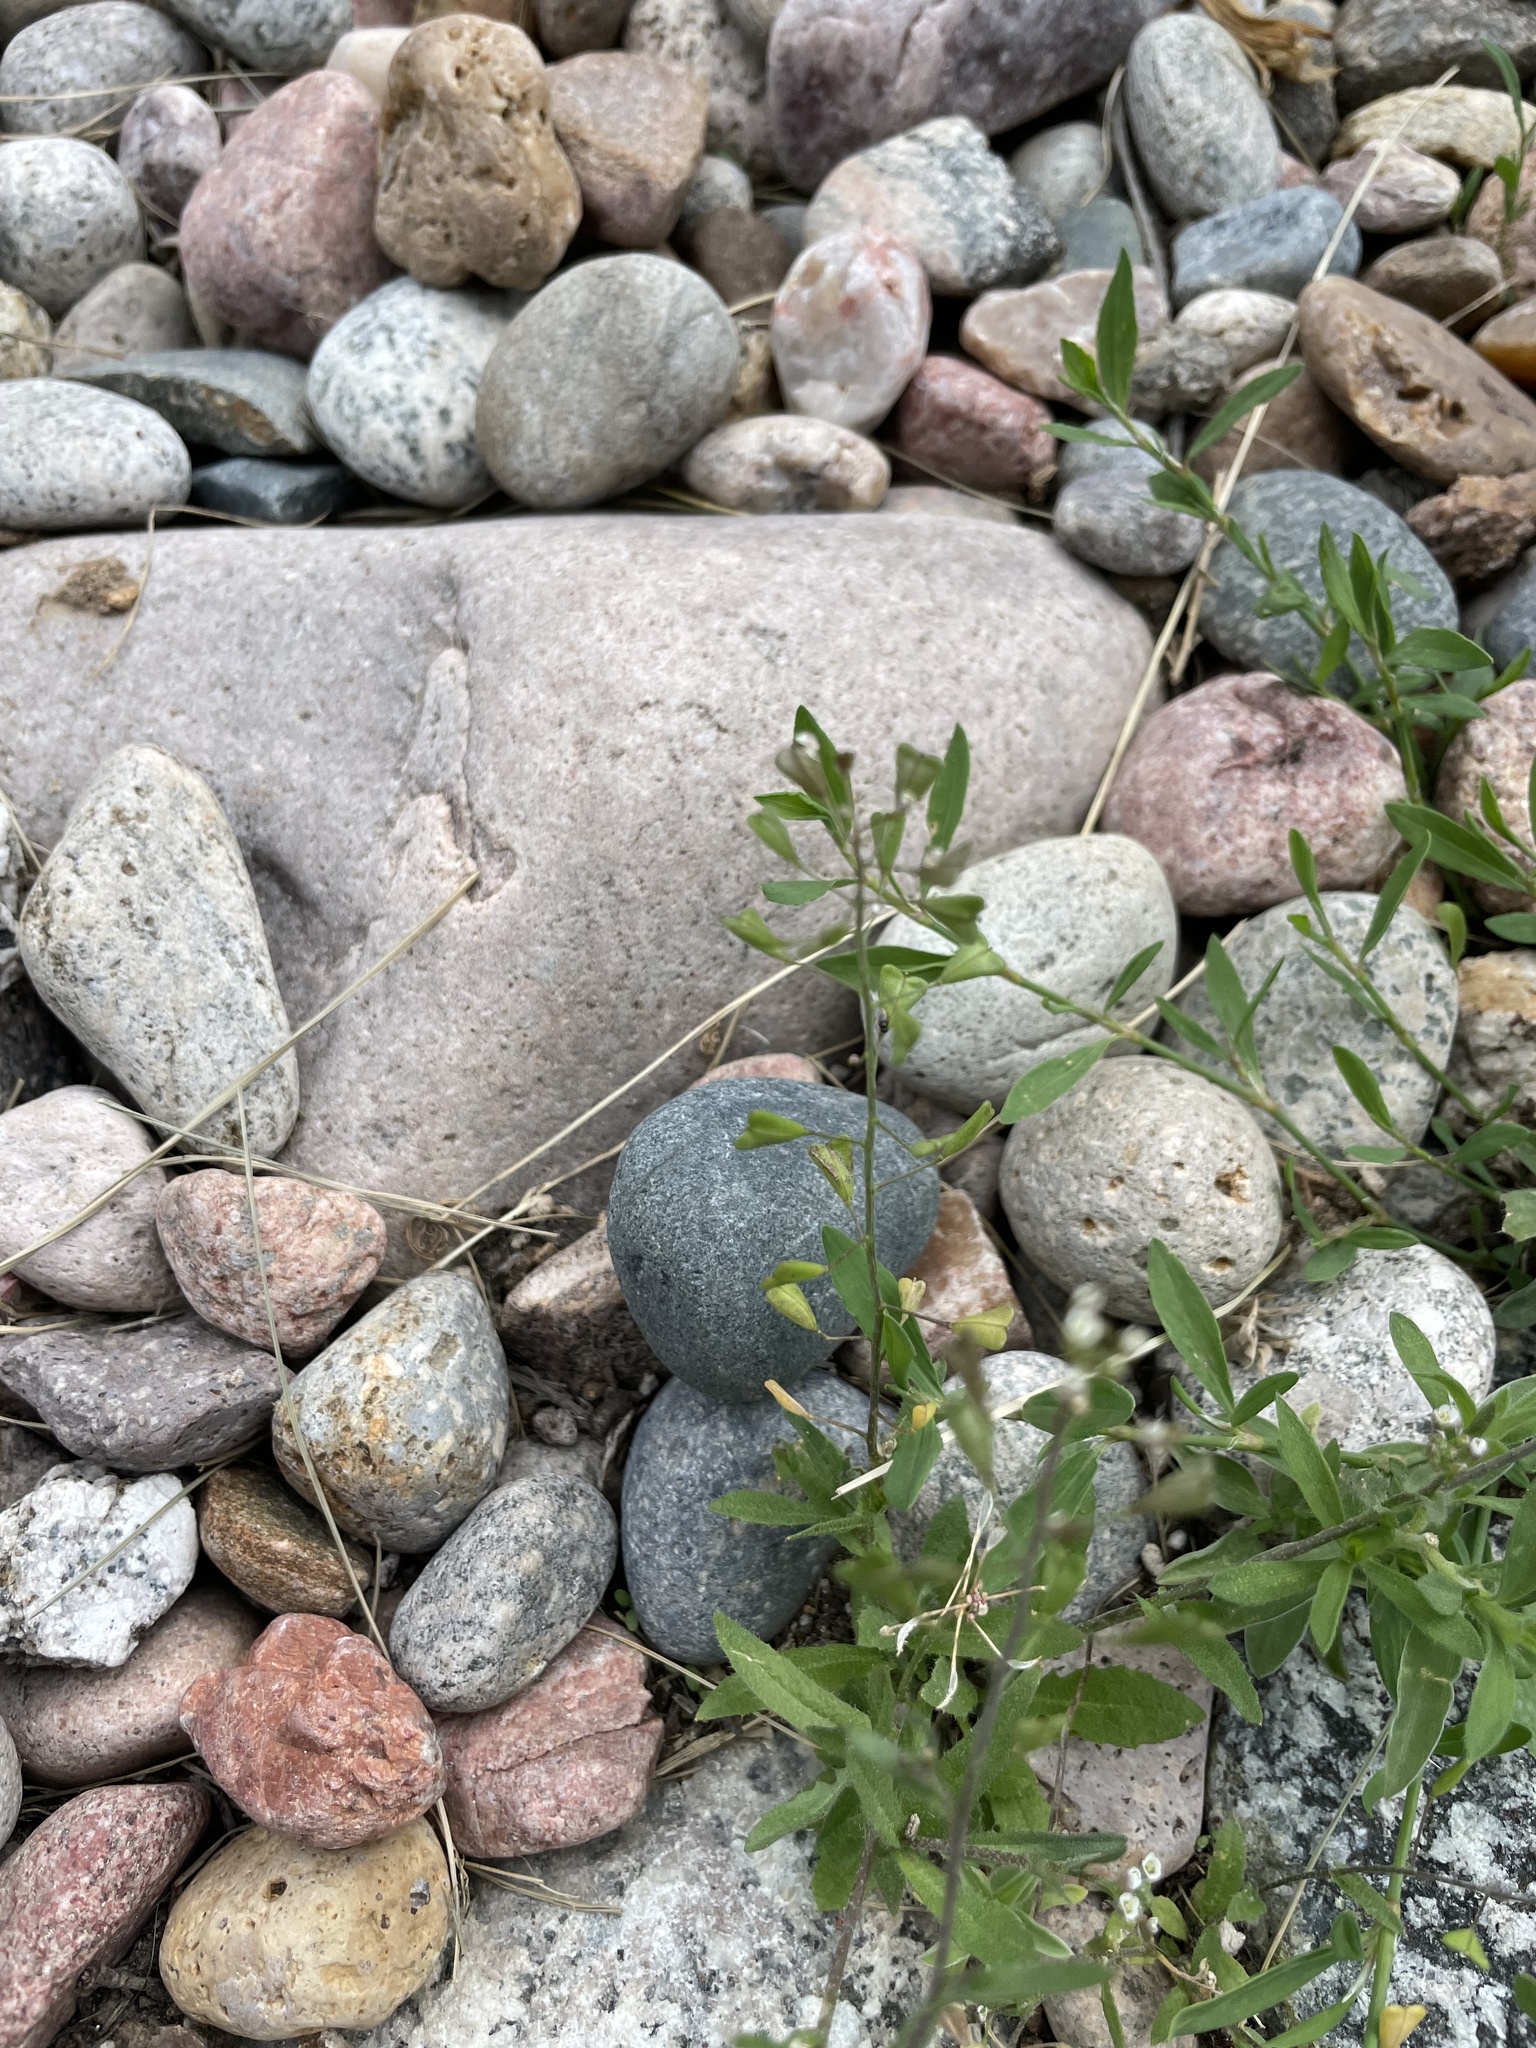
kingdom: Plantae
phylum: Tracheophyta
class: Magnoliopsida
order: Brassicales
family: Brassicaceae
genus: Capsella
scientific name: Capsella bursa-pastoris
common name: Shepherd's purse
